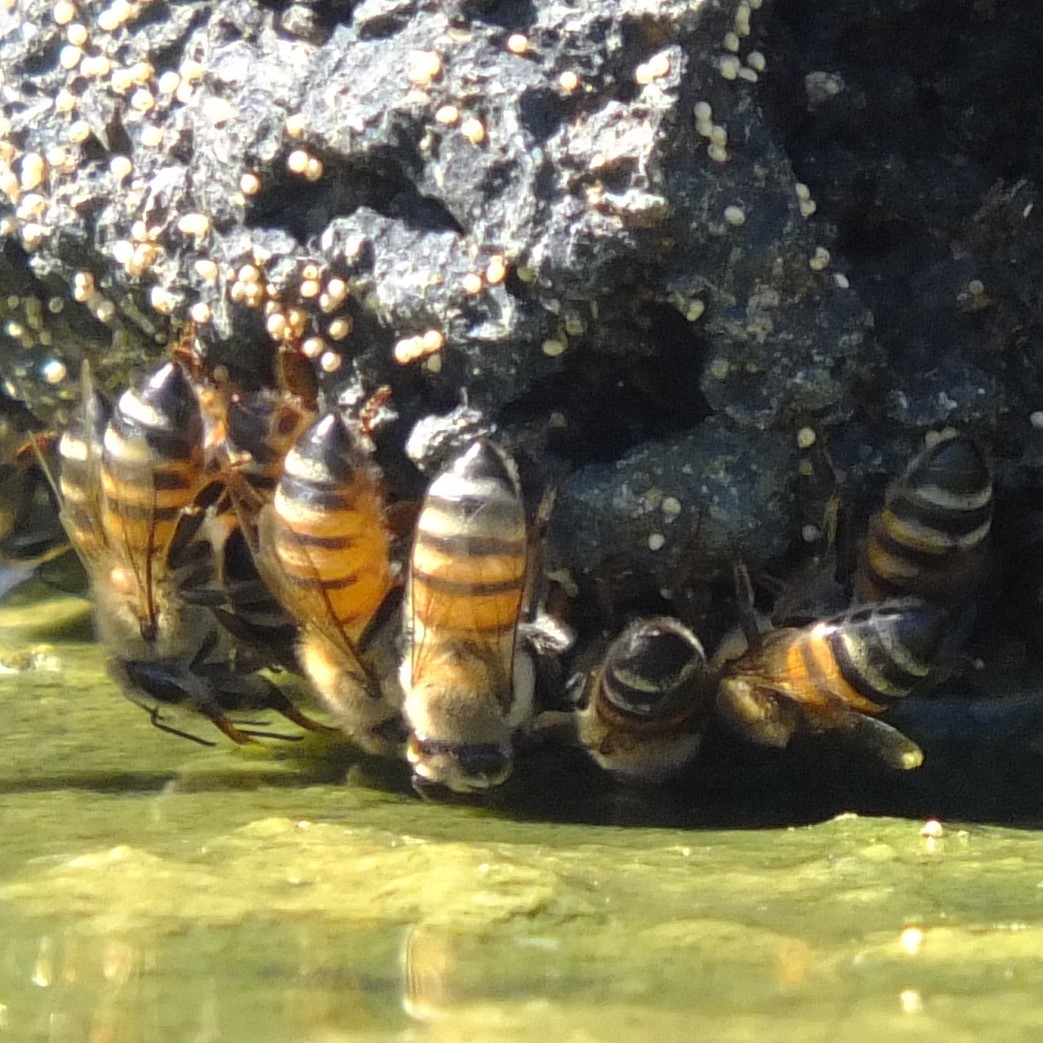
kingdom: Animalia
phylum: Arthropoda
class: Insecta
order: Hymenoptera
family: Apidae
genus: Apis
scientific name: Apis mellifera
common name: Honey bee
